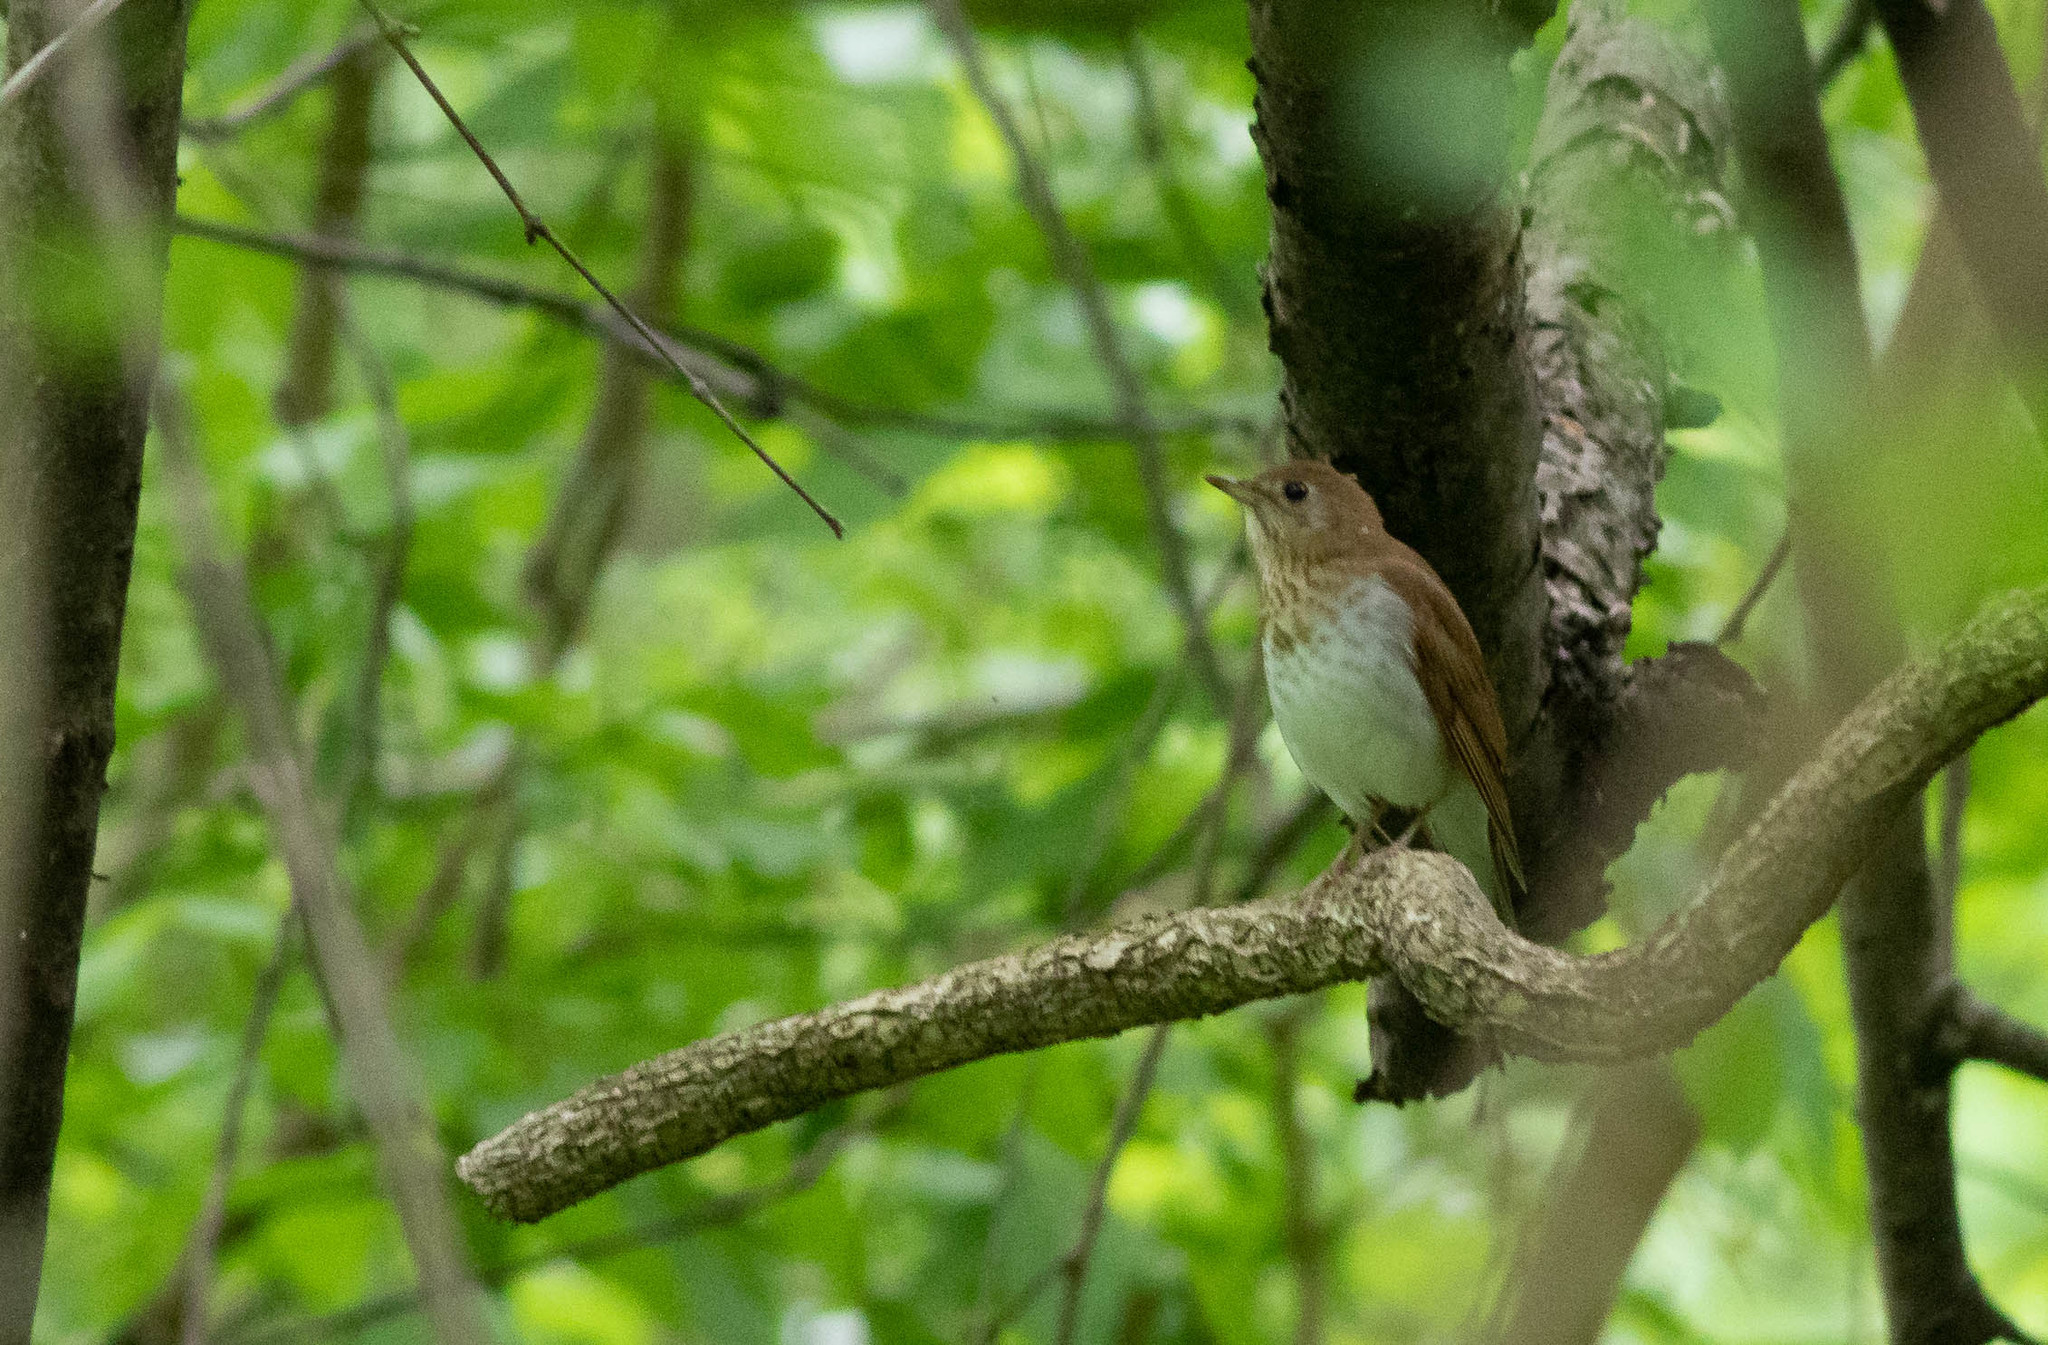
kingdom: Animalia
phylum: Chordata
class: Aves
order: Passeriformes
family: Turdidae
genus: Catharus
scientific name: Catharus fuscescens
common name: Veery
